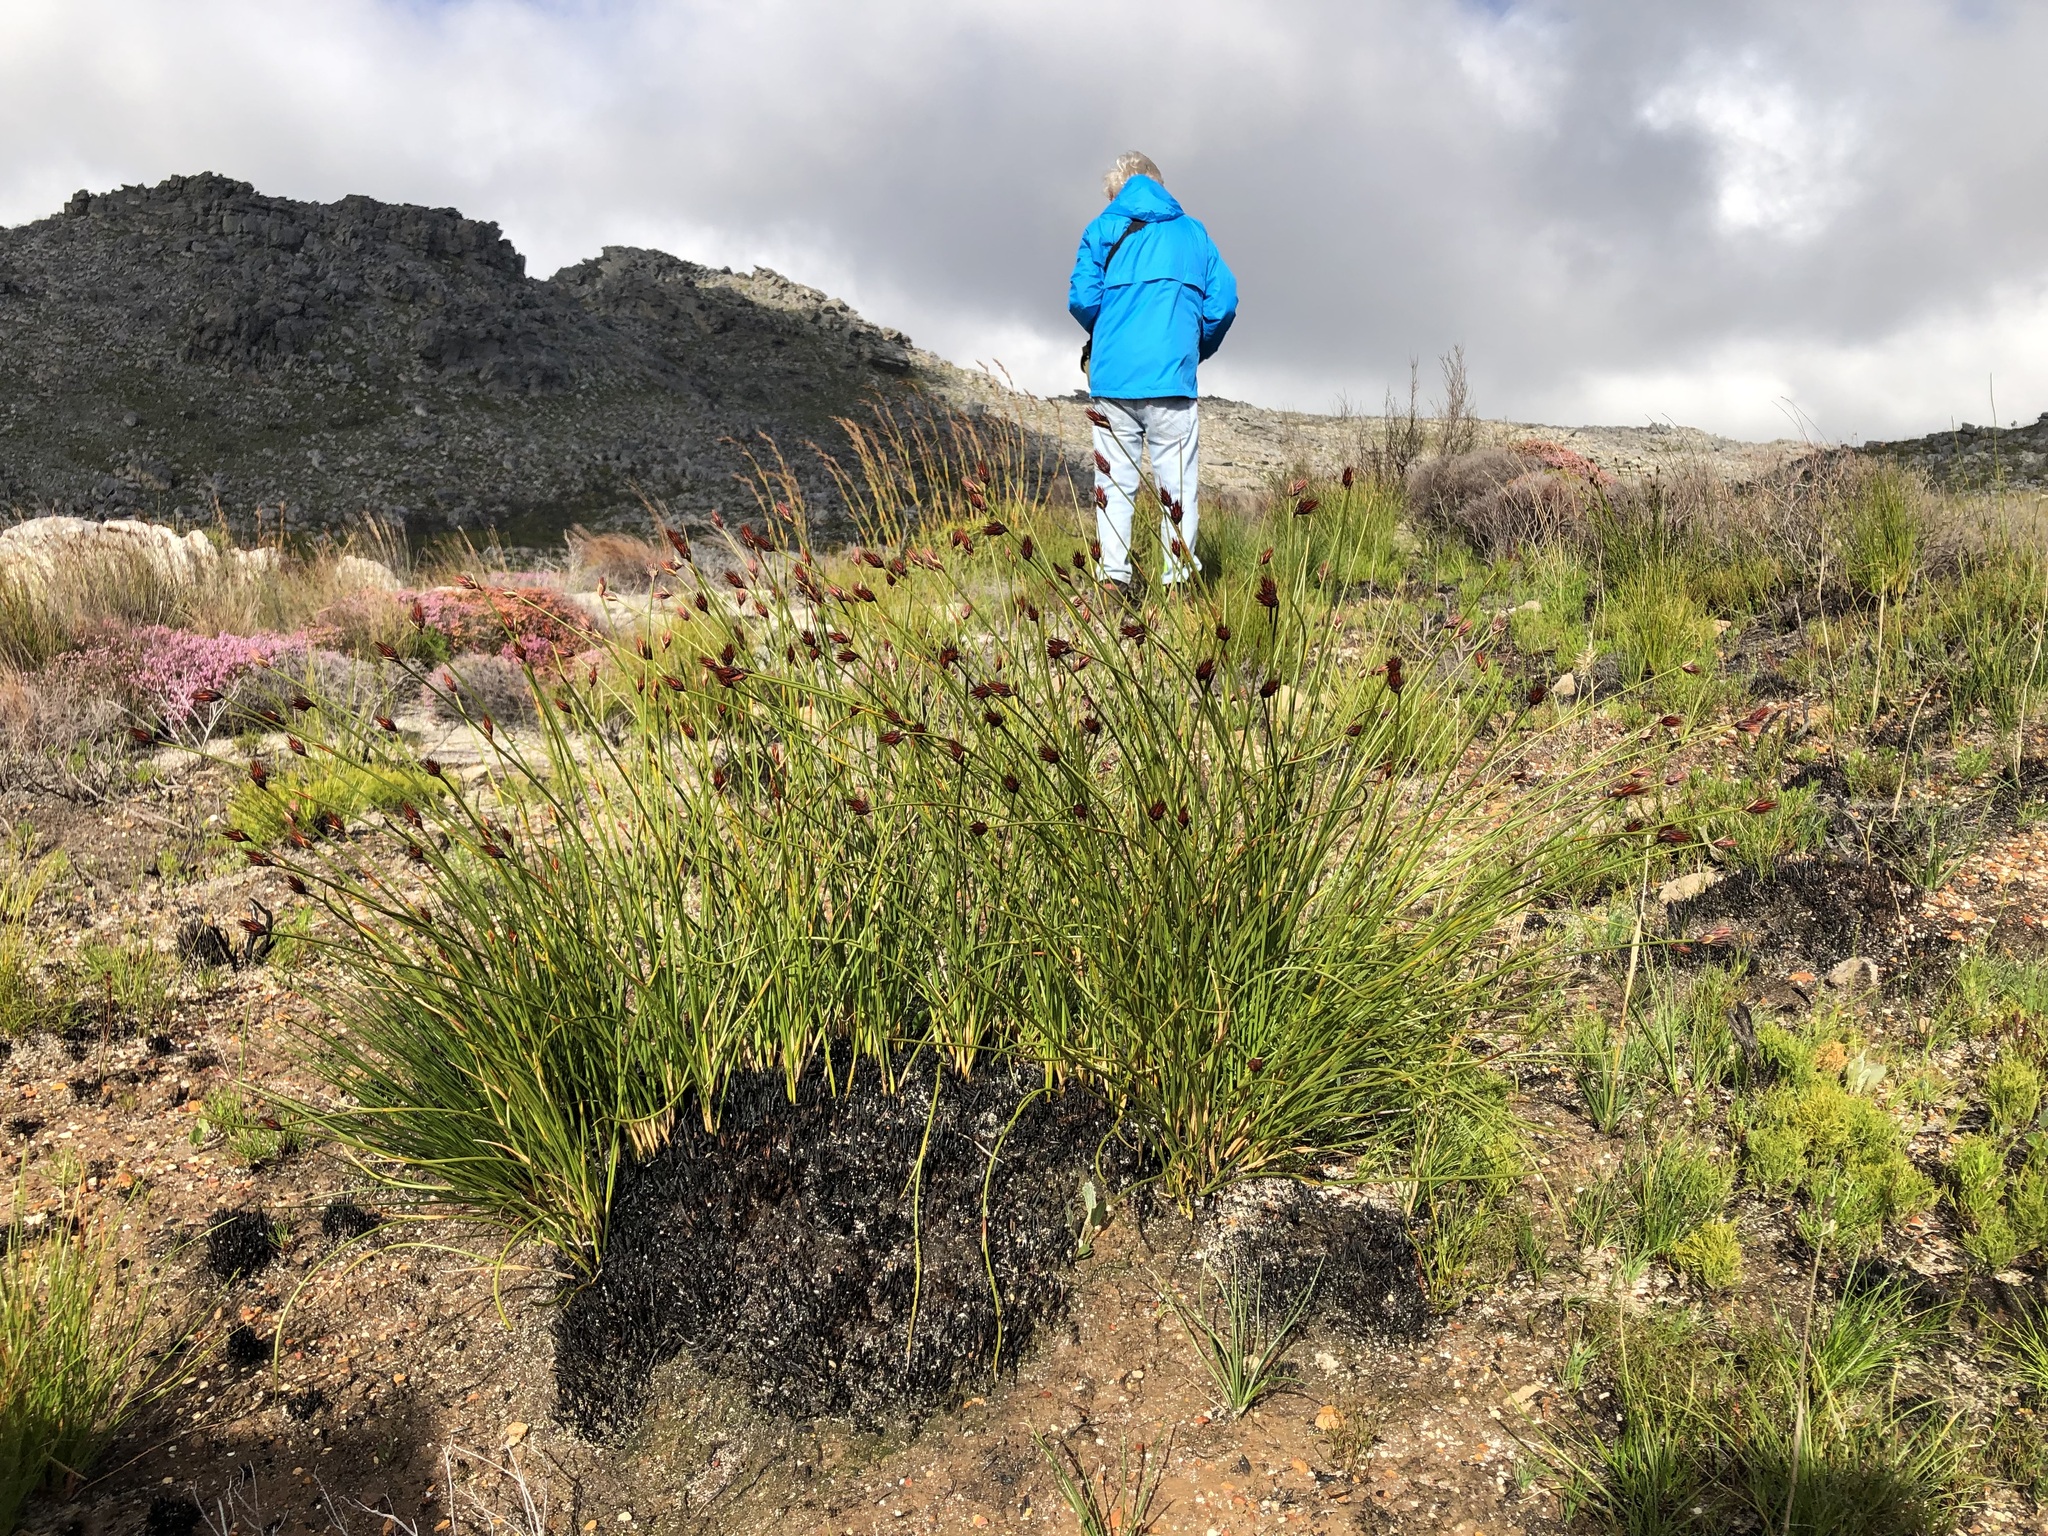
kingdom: Plantae
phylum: Tracheophyta
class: Liliopsida
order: Poales
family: Restionaceae
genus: Hypodiscus
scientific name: Hypodiscus aristatus
